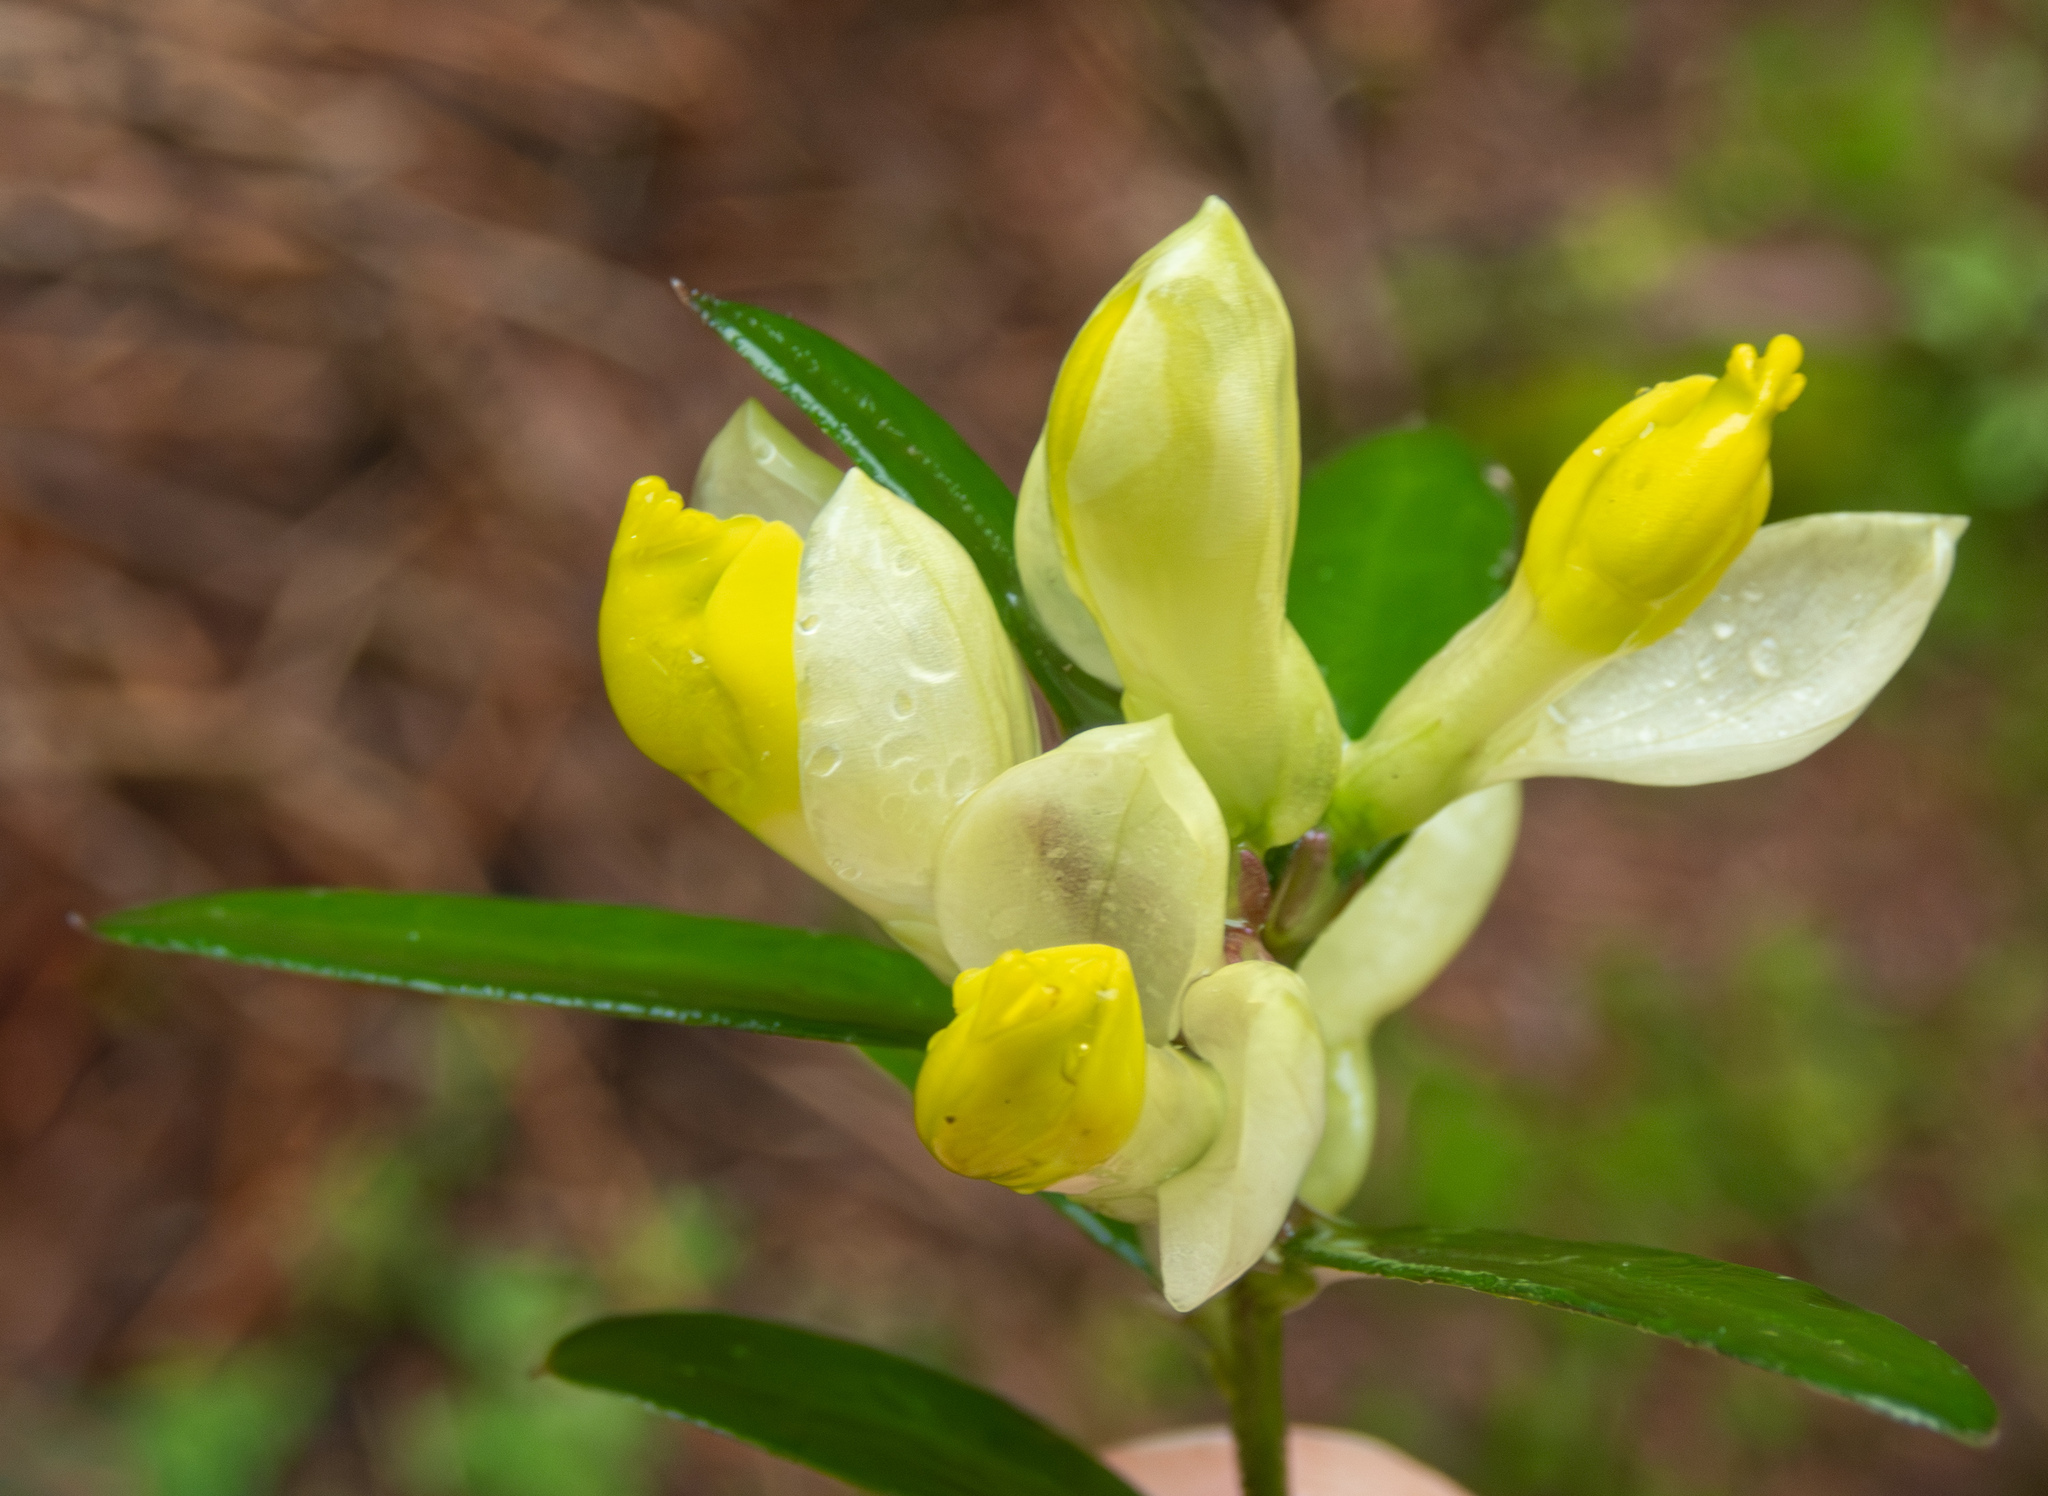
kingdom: Plantae
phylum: Tracheophyta
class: Magnoliopsida
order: Fabales
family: Polygalaceae
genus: Polygaloides
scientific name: Polygaloides chamaebuxus
